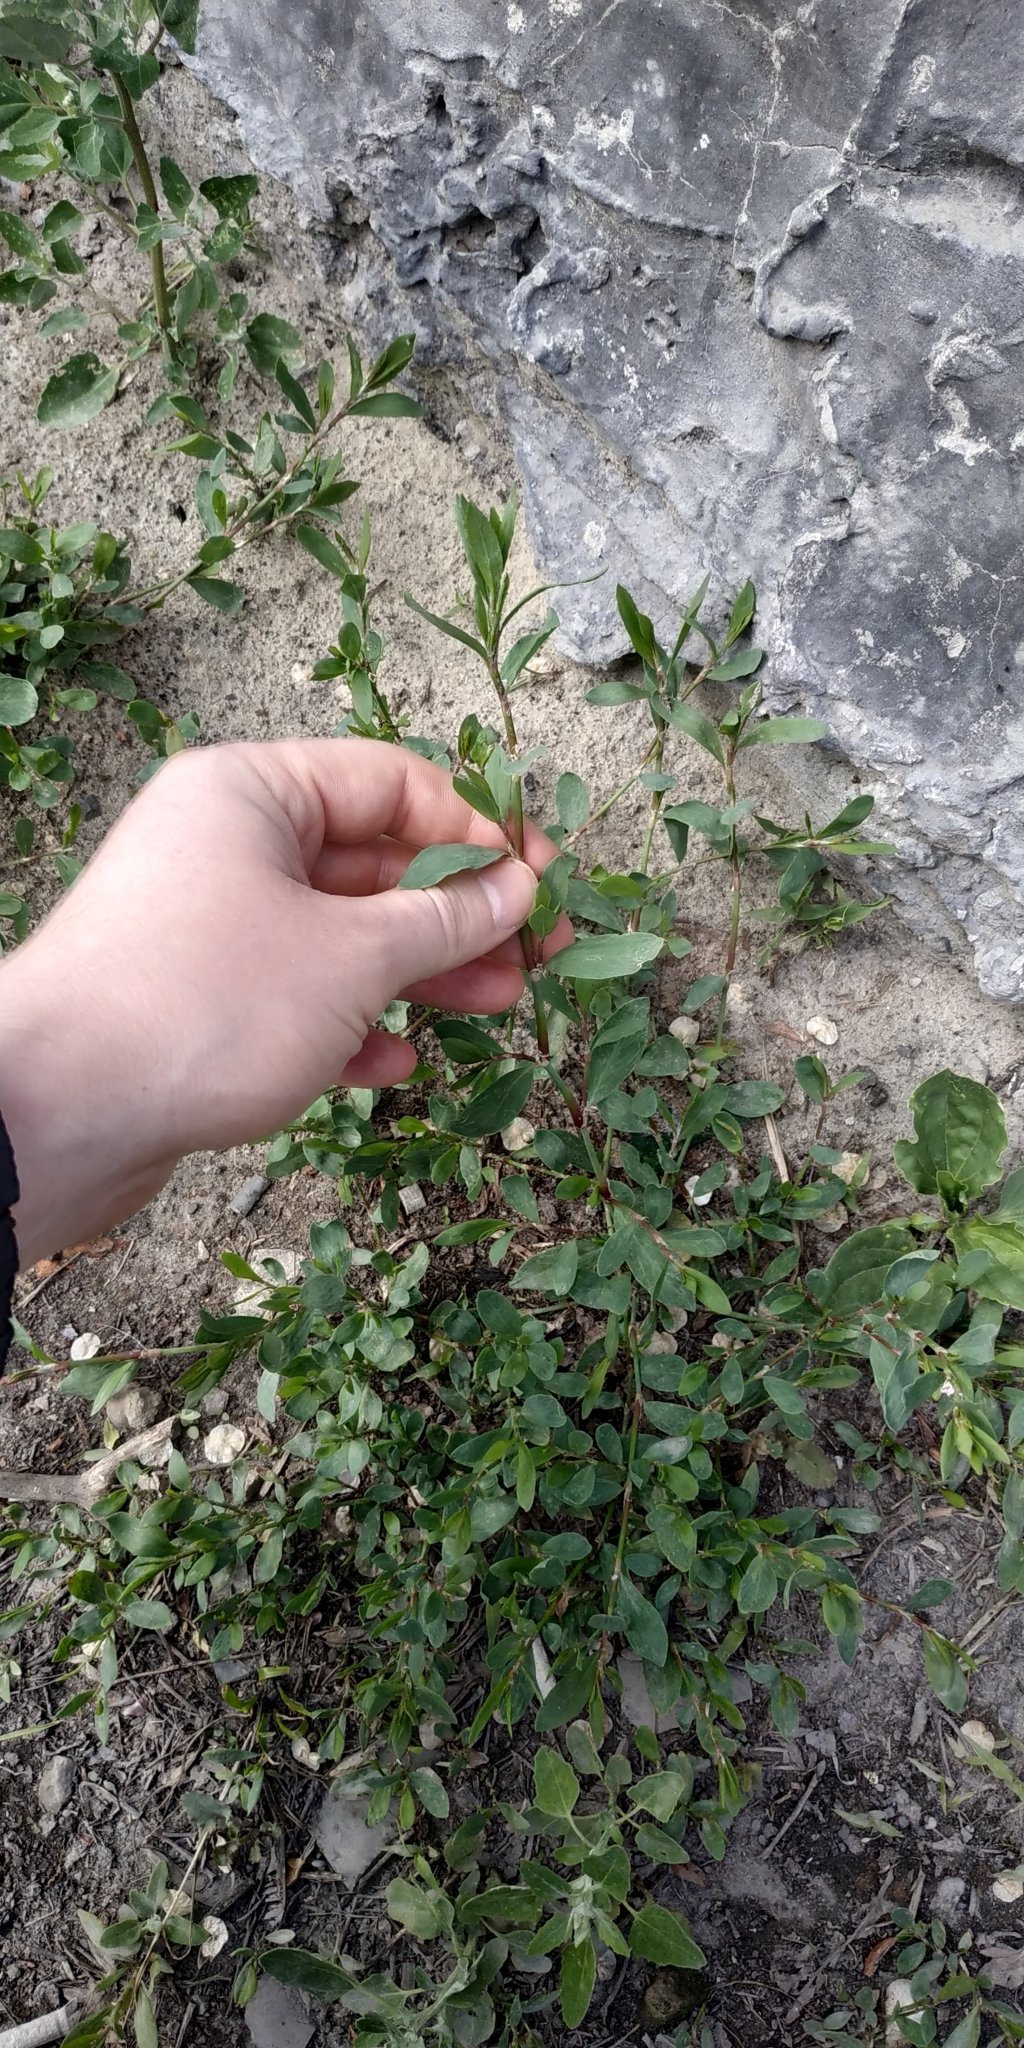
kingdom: Plantae
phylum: Tracheophyta
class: Magnoliopsida
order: Caryophyllales
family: Polygonaceae
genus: Polygonum
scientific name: Polygonum aviculare
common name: Prostrate knotweed
